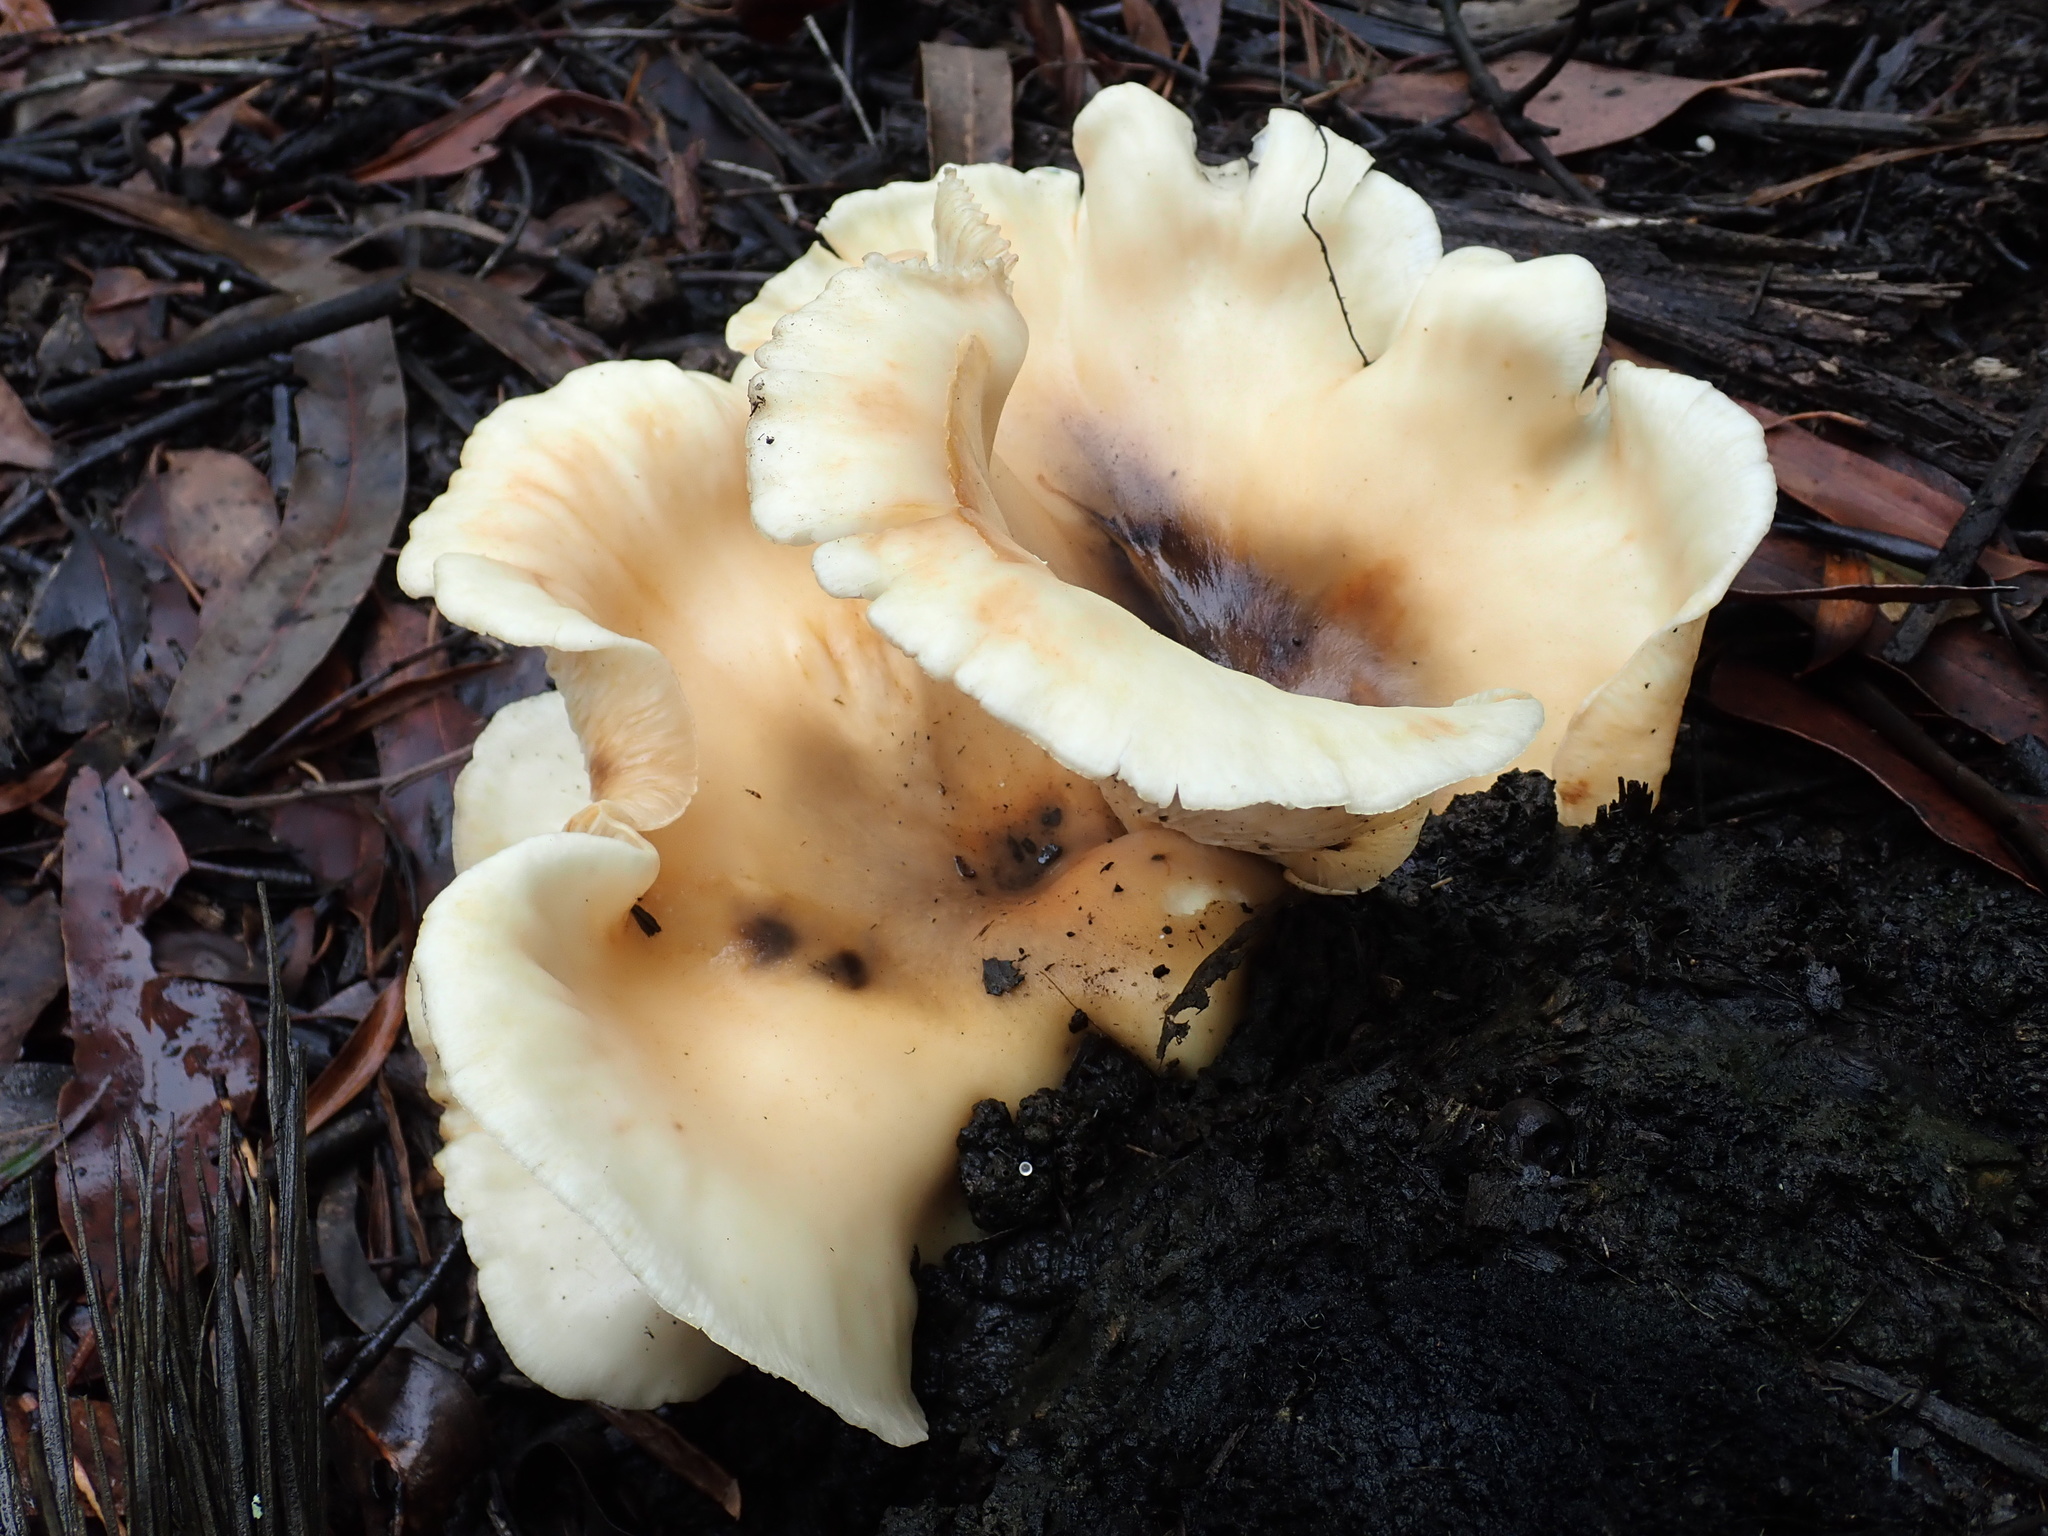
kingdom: Fungi
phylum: Basidiomycota
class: Agaricomycetes
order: Agaricales
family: Omphalotaceae
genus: Omphalotus
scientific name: Omphalotus nidiformis
